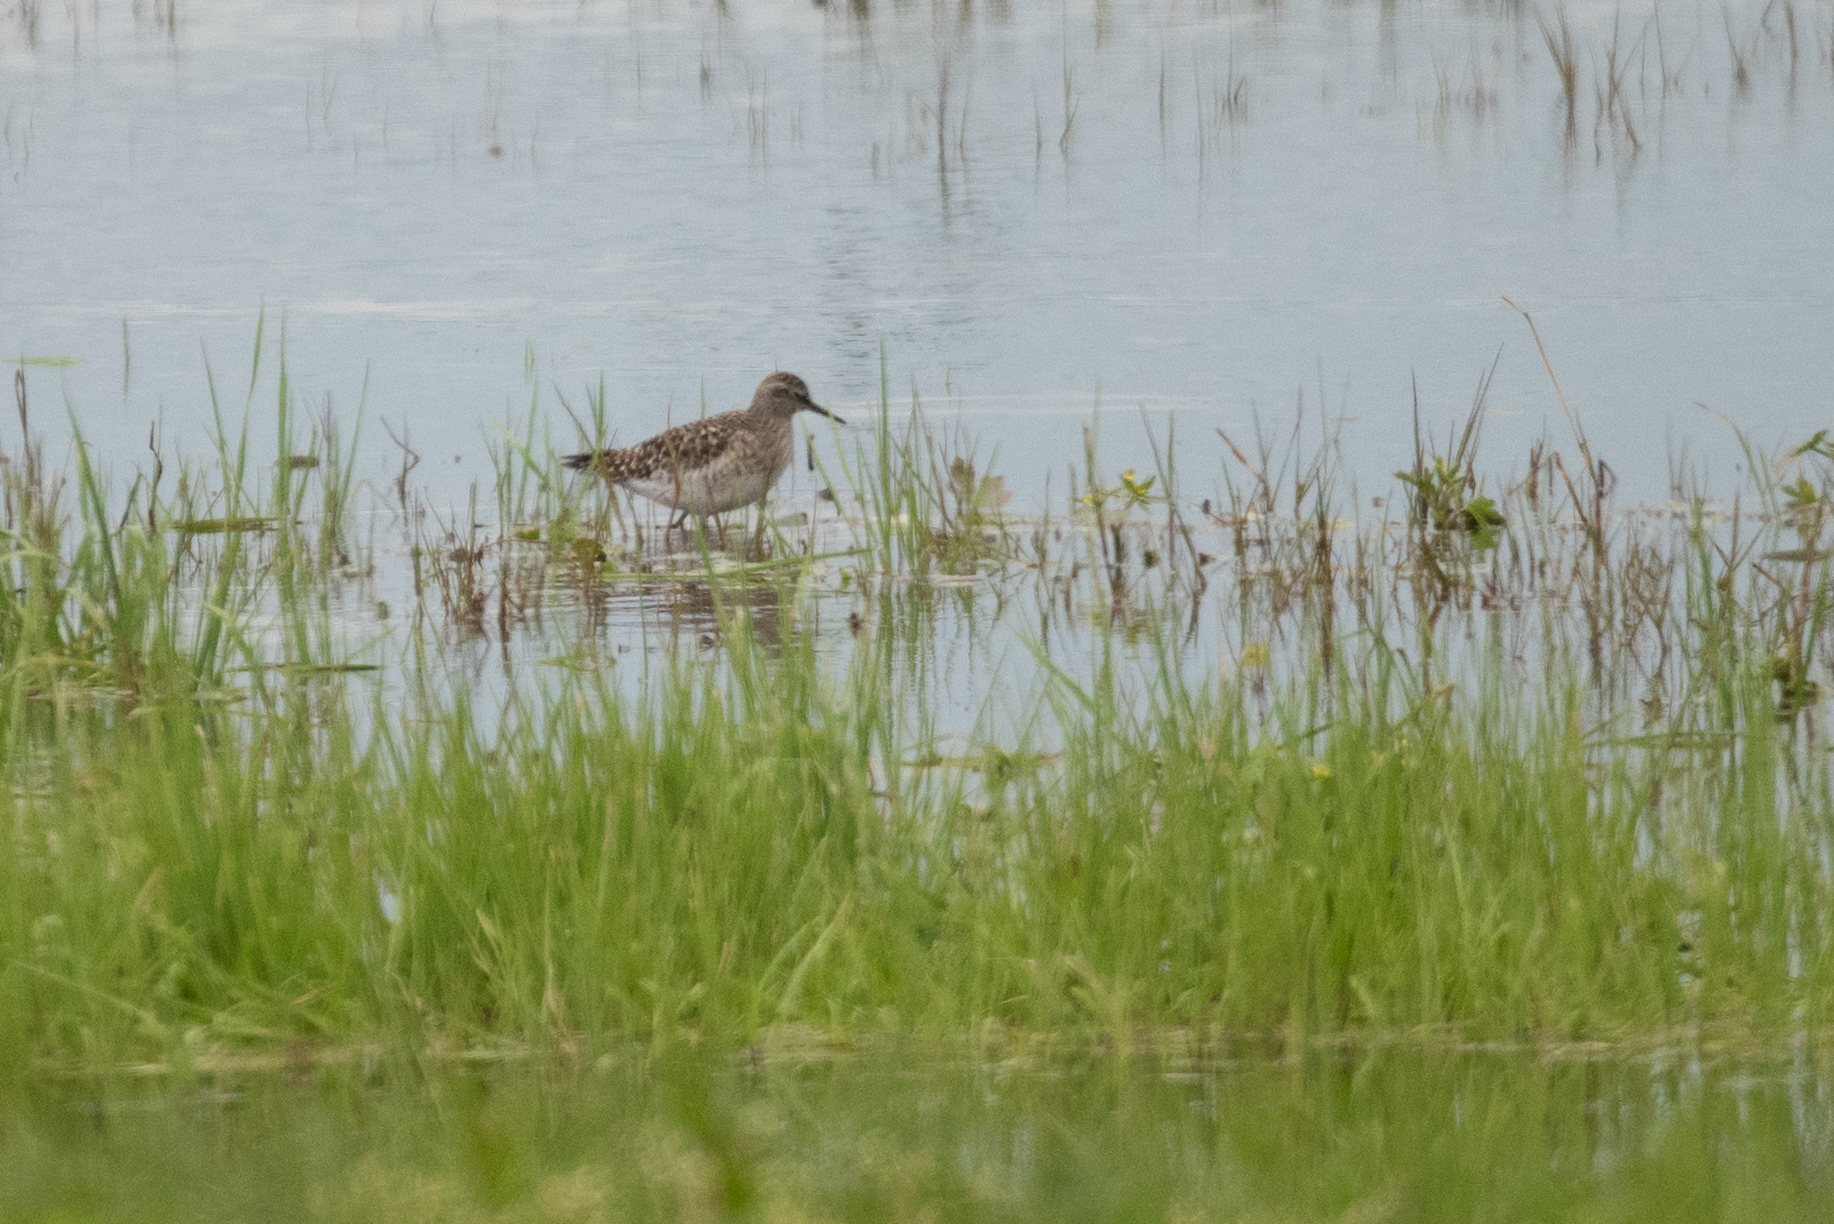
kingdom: Animalia
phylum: Chordata
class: Aves
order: Charadriiformes
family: Scolopacidae
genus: Tringa
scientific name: Tringa glareola
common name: Wood sandpiper
